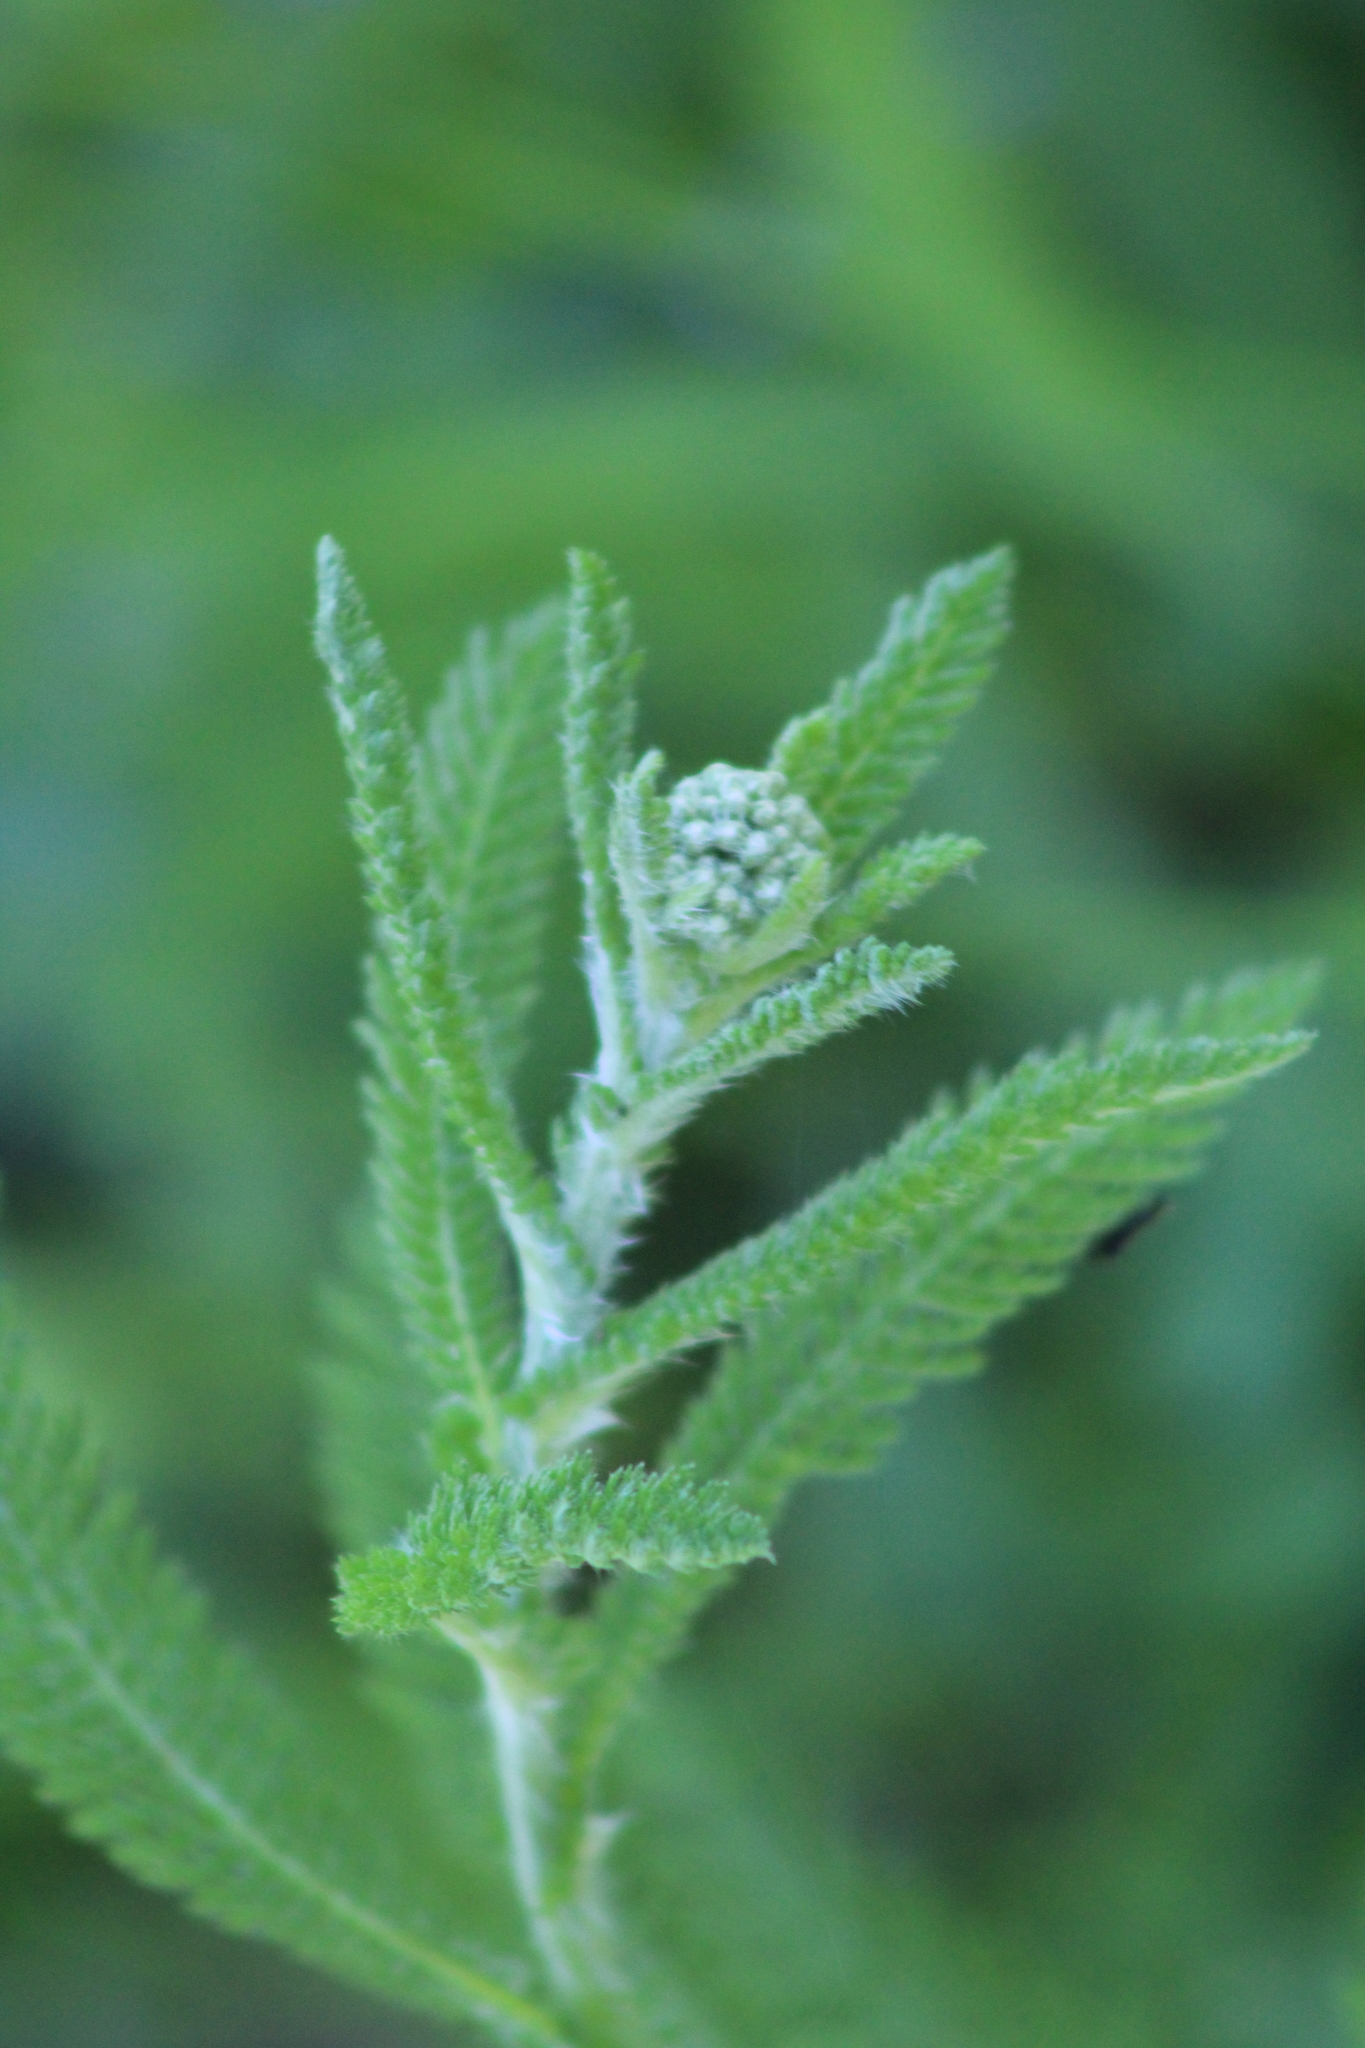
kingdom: Plantae
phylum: Tracheophyta
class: Magnoliopsida
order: Asterales
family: Asteraceae
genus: Achillea
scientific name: Achillea millefolium
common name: Yarrow
